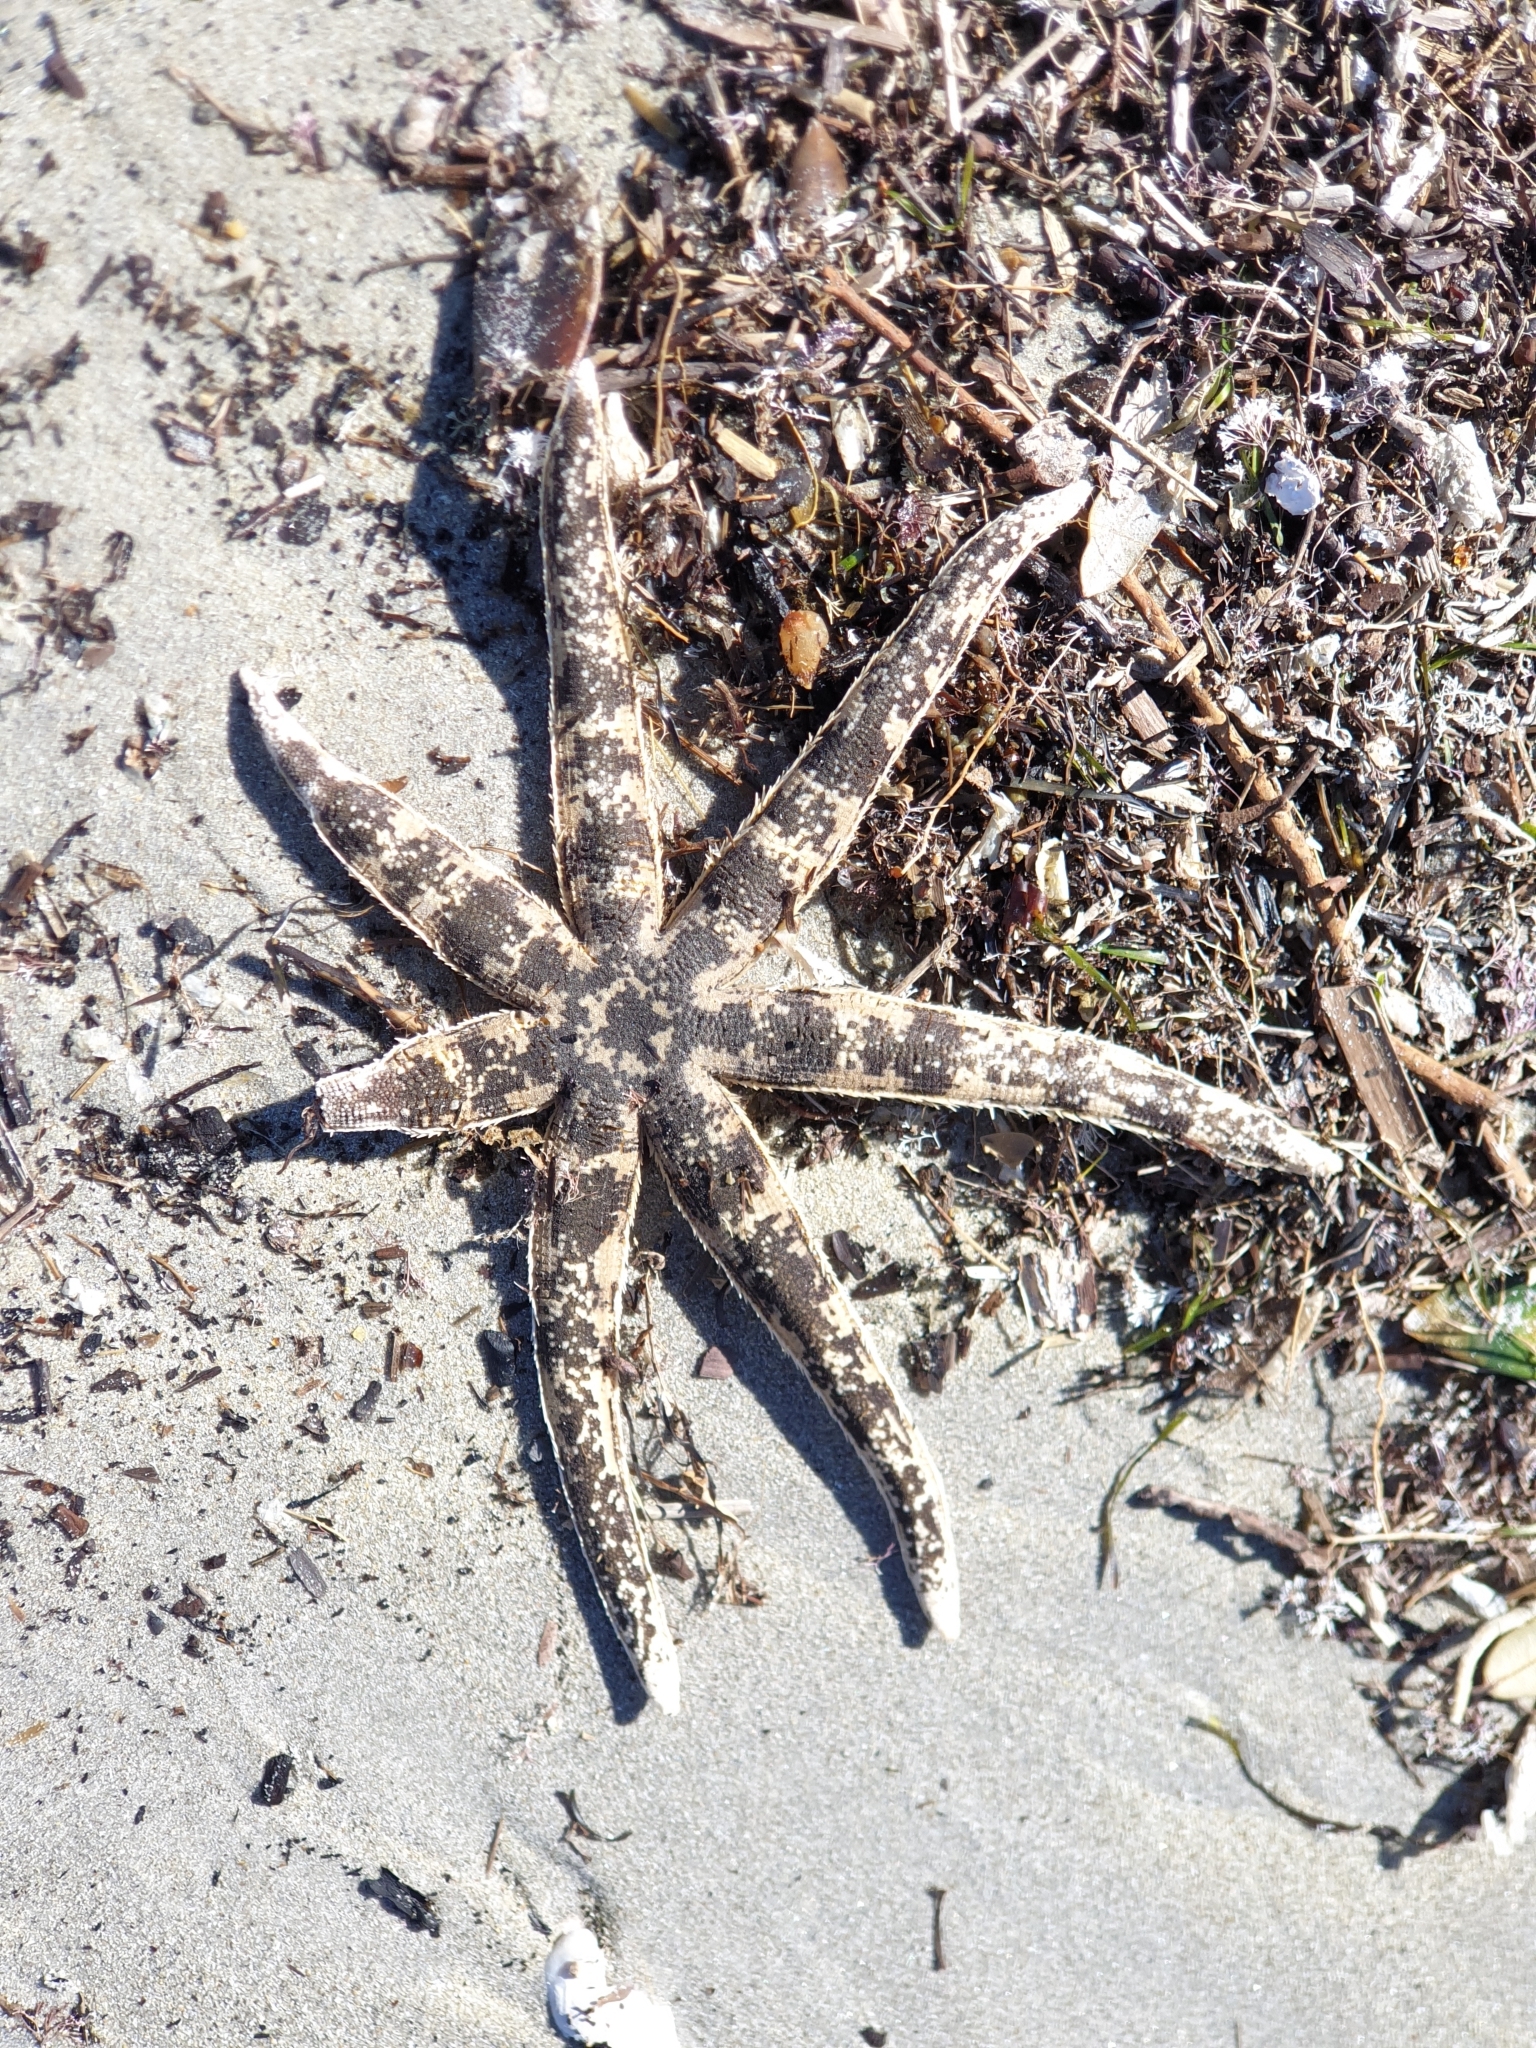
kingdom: Animalia
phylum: Echinodermata
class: Asteroidea
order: Paxillosida
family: Luidiidae
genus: Luidia
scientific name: Luidia australiae
